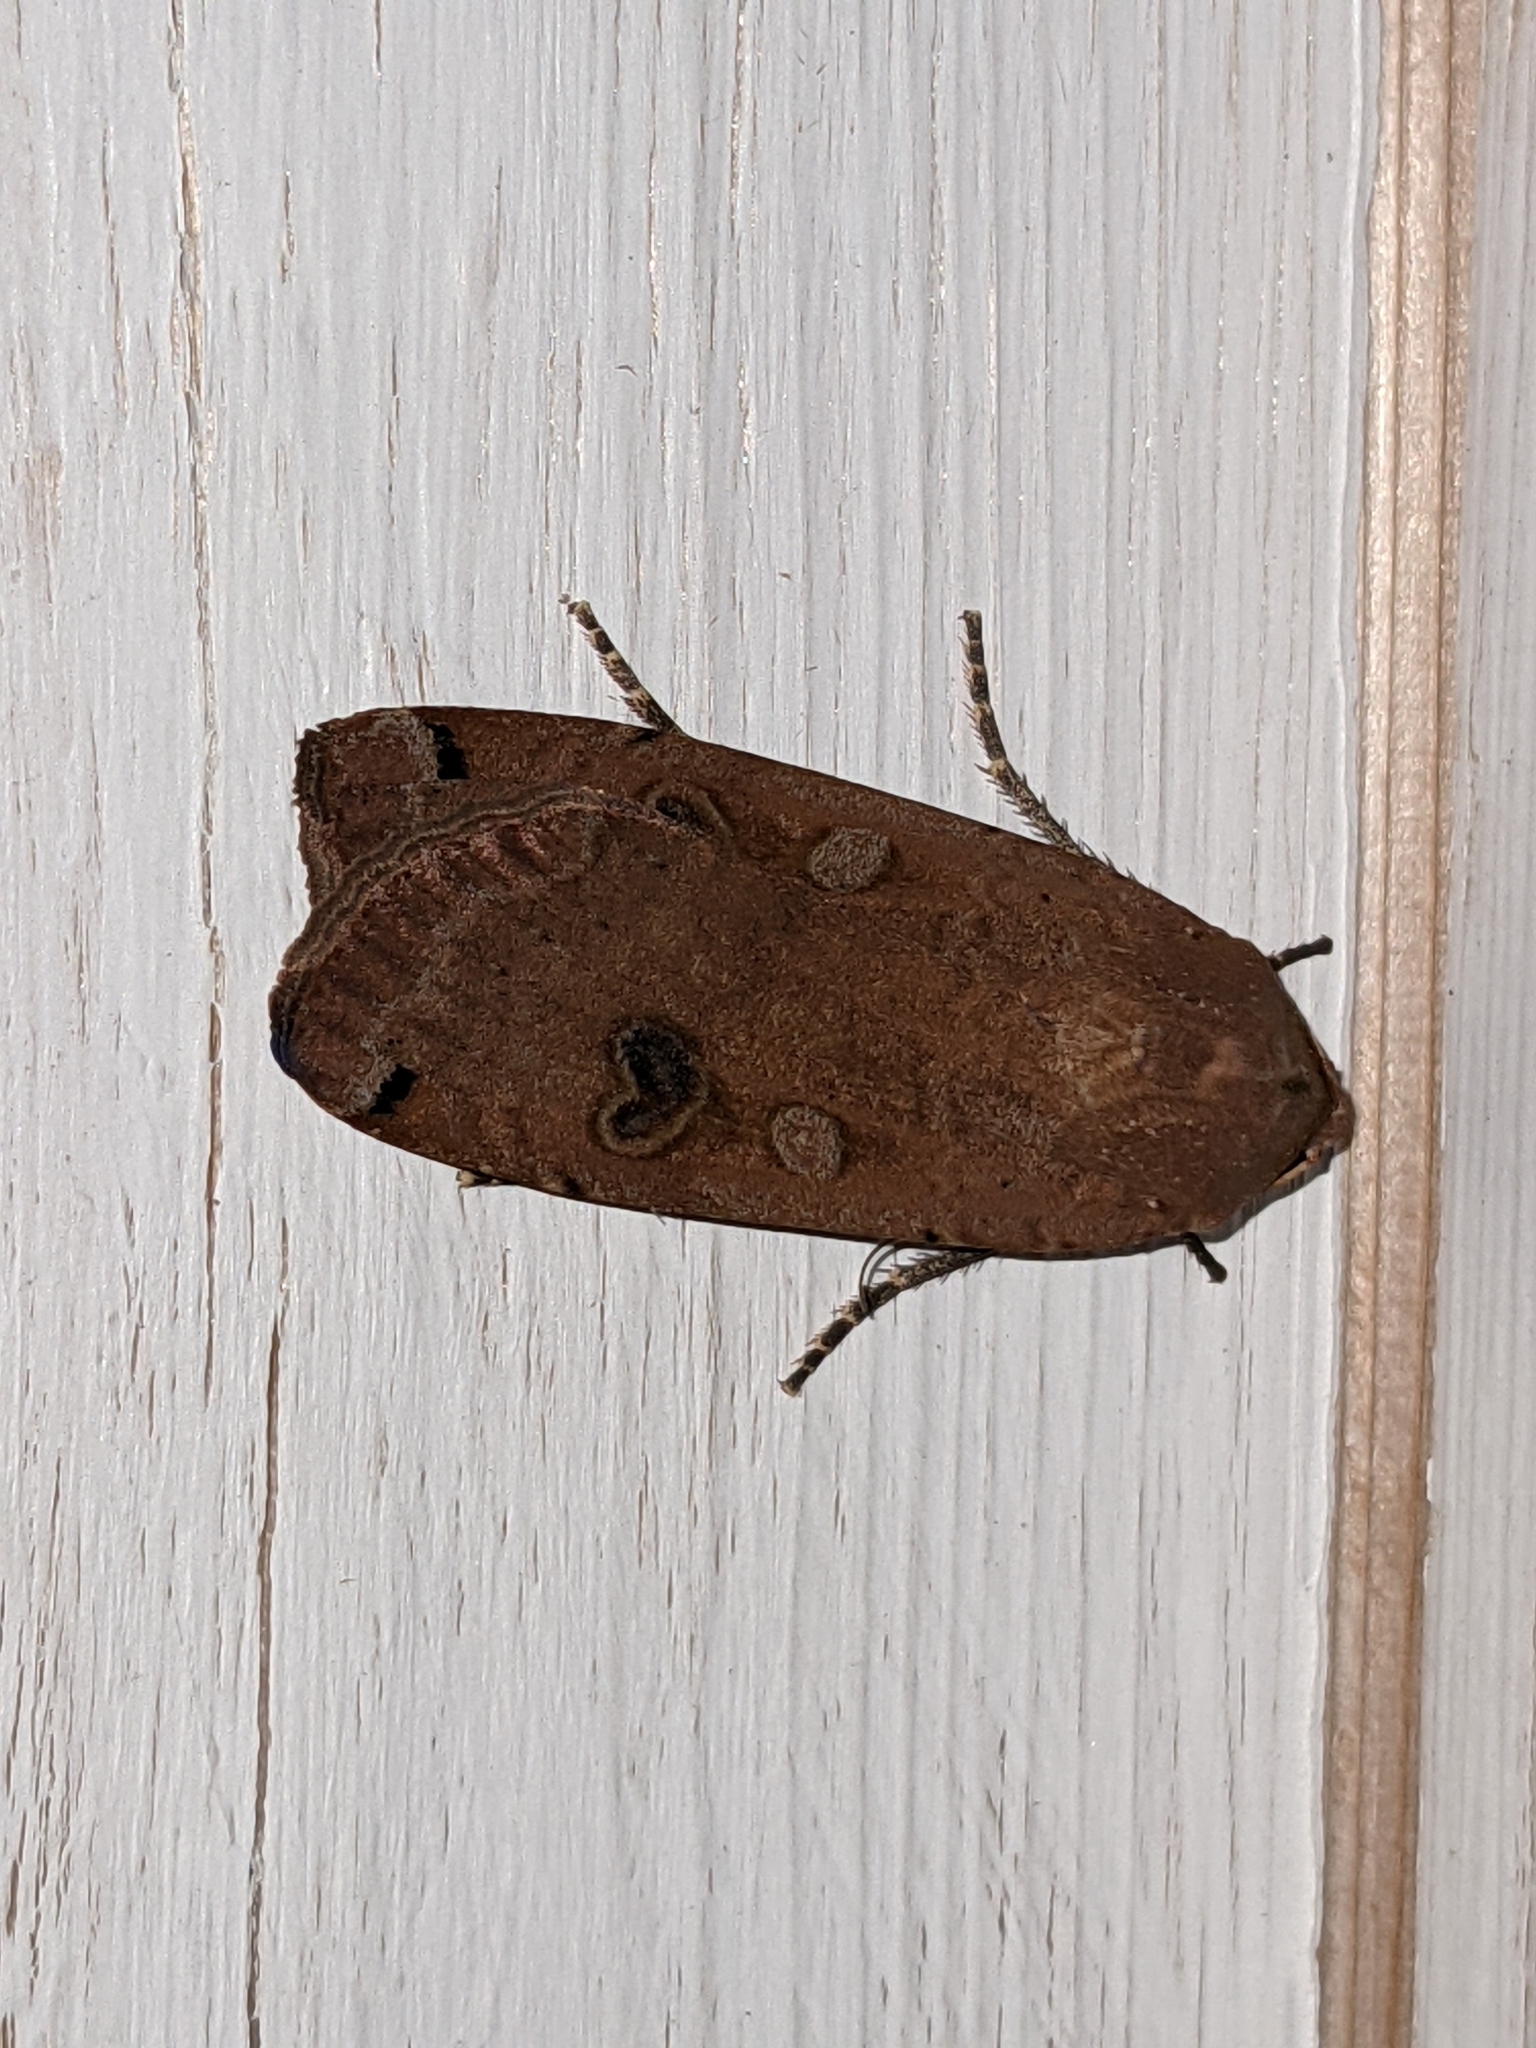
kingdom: Animalia
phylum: Arthropoda
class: Insecta
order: Lepidoptera
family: Noctuidae
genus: Noctua
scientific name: Noctua pronuba
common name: Large yellow underwing
